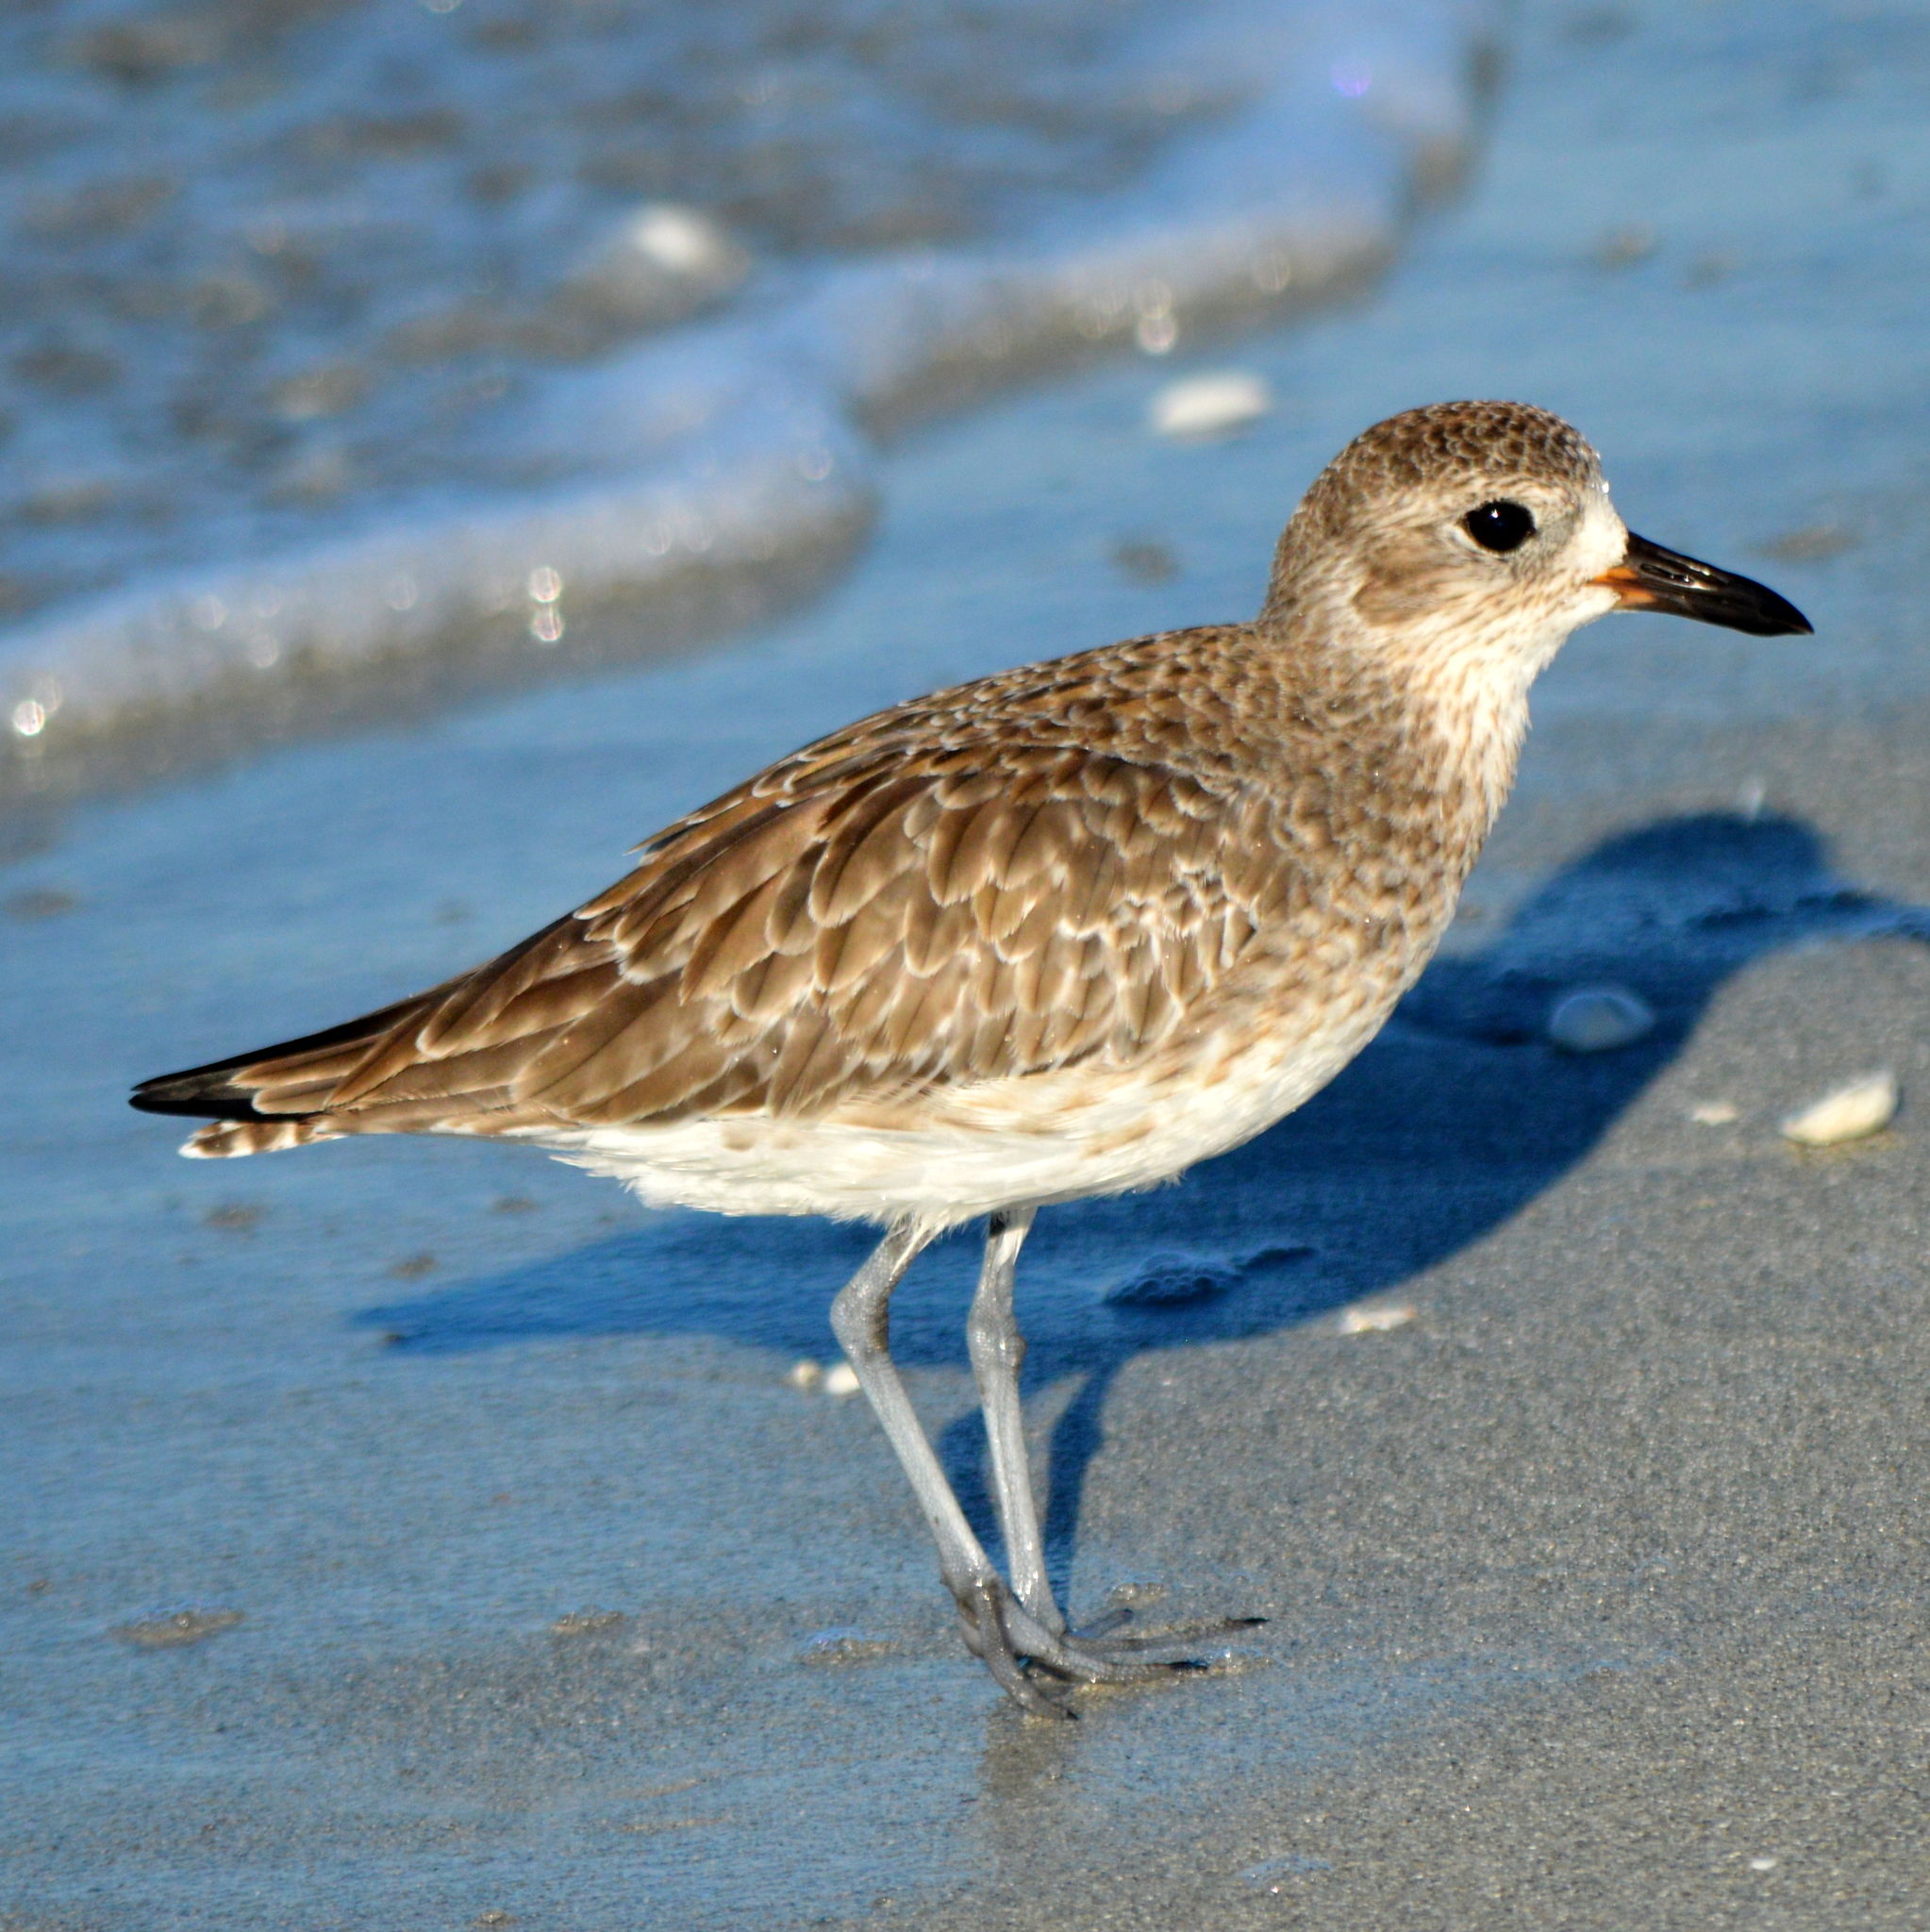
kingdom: Animalia
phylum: Chordata
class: Aves
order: Charadriiformes
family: Charadriidae
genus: Pluvialis
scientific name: Pluvialis squatarola
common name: Grey plover
